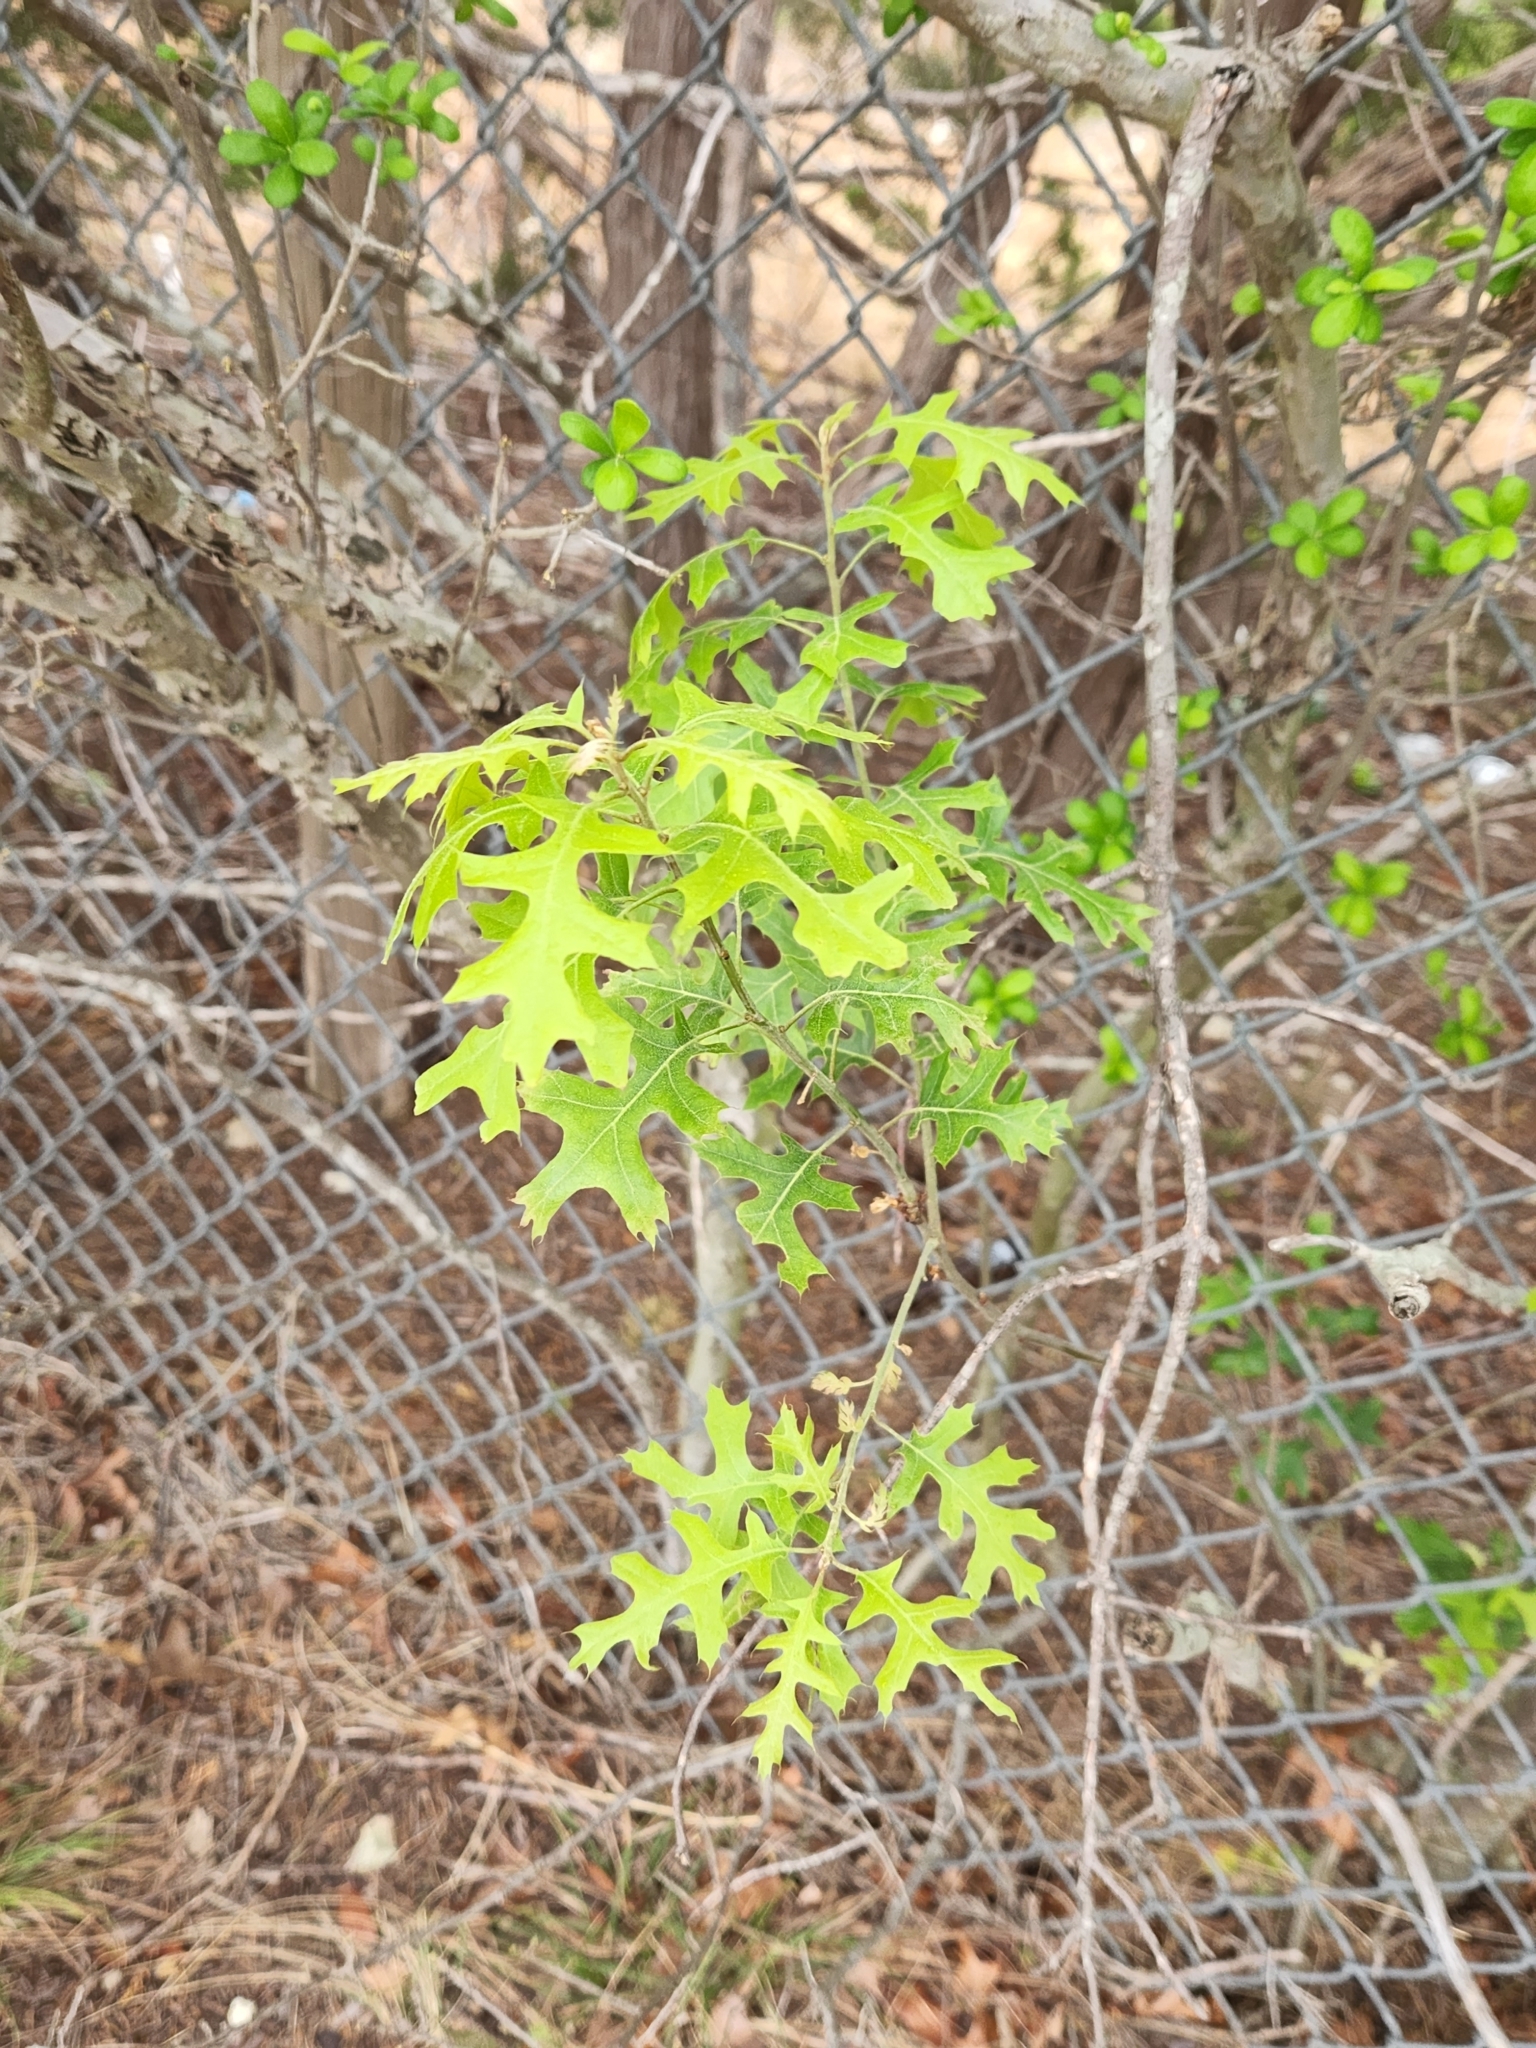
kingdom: Plantae
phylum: Tracheophyta
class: Magnoliopsida
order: Fagales
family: Fagaceae
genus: Quercus
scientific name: Quercus buckleyi
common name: Buckley oak
